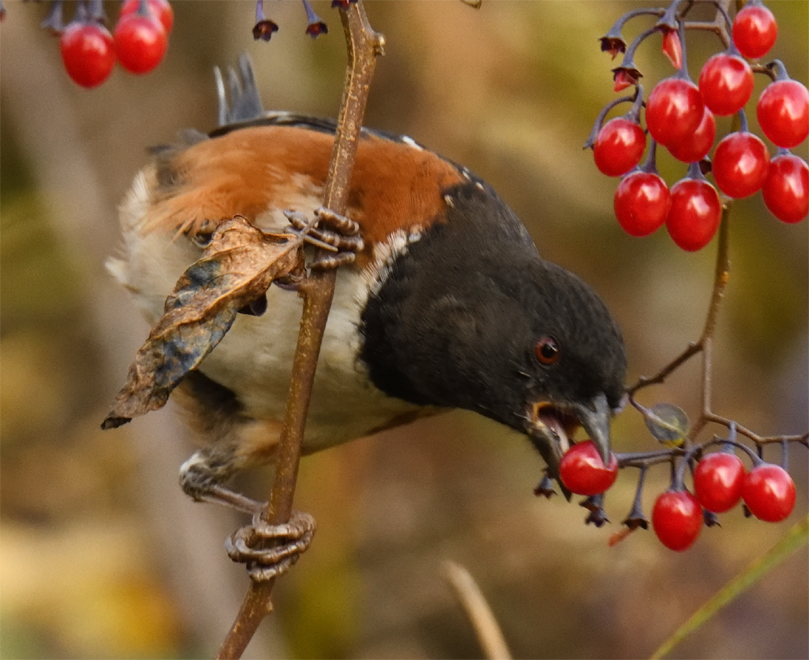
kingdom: Animalia
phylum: Chordata
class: Aves
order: Passeriformes
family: Passerellidae
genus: Pipilo
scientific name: Pipilo maculatus
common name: Spotted towhee
